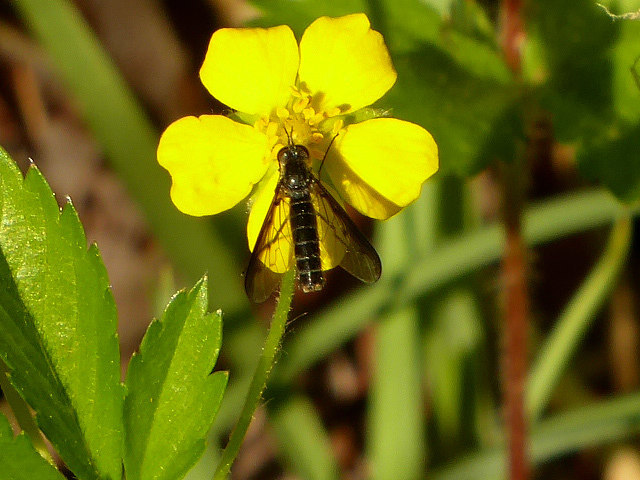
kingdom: Animalia
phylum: Arthropoda
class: Insecta
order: Diptera
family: Bombyliidae
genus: Thevenetimyia
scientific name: Thevenetimyia funestus
